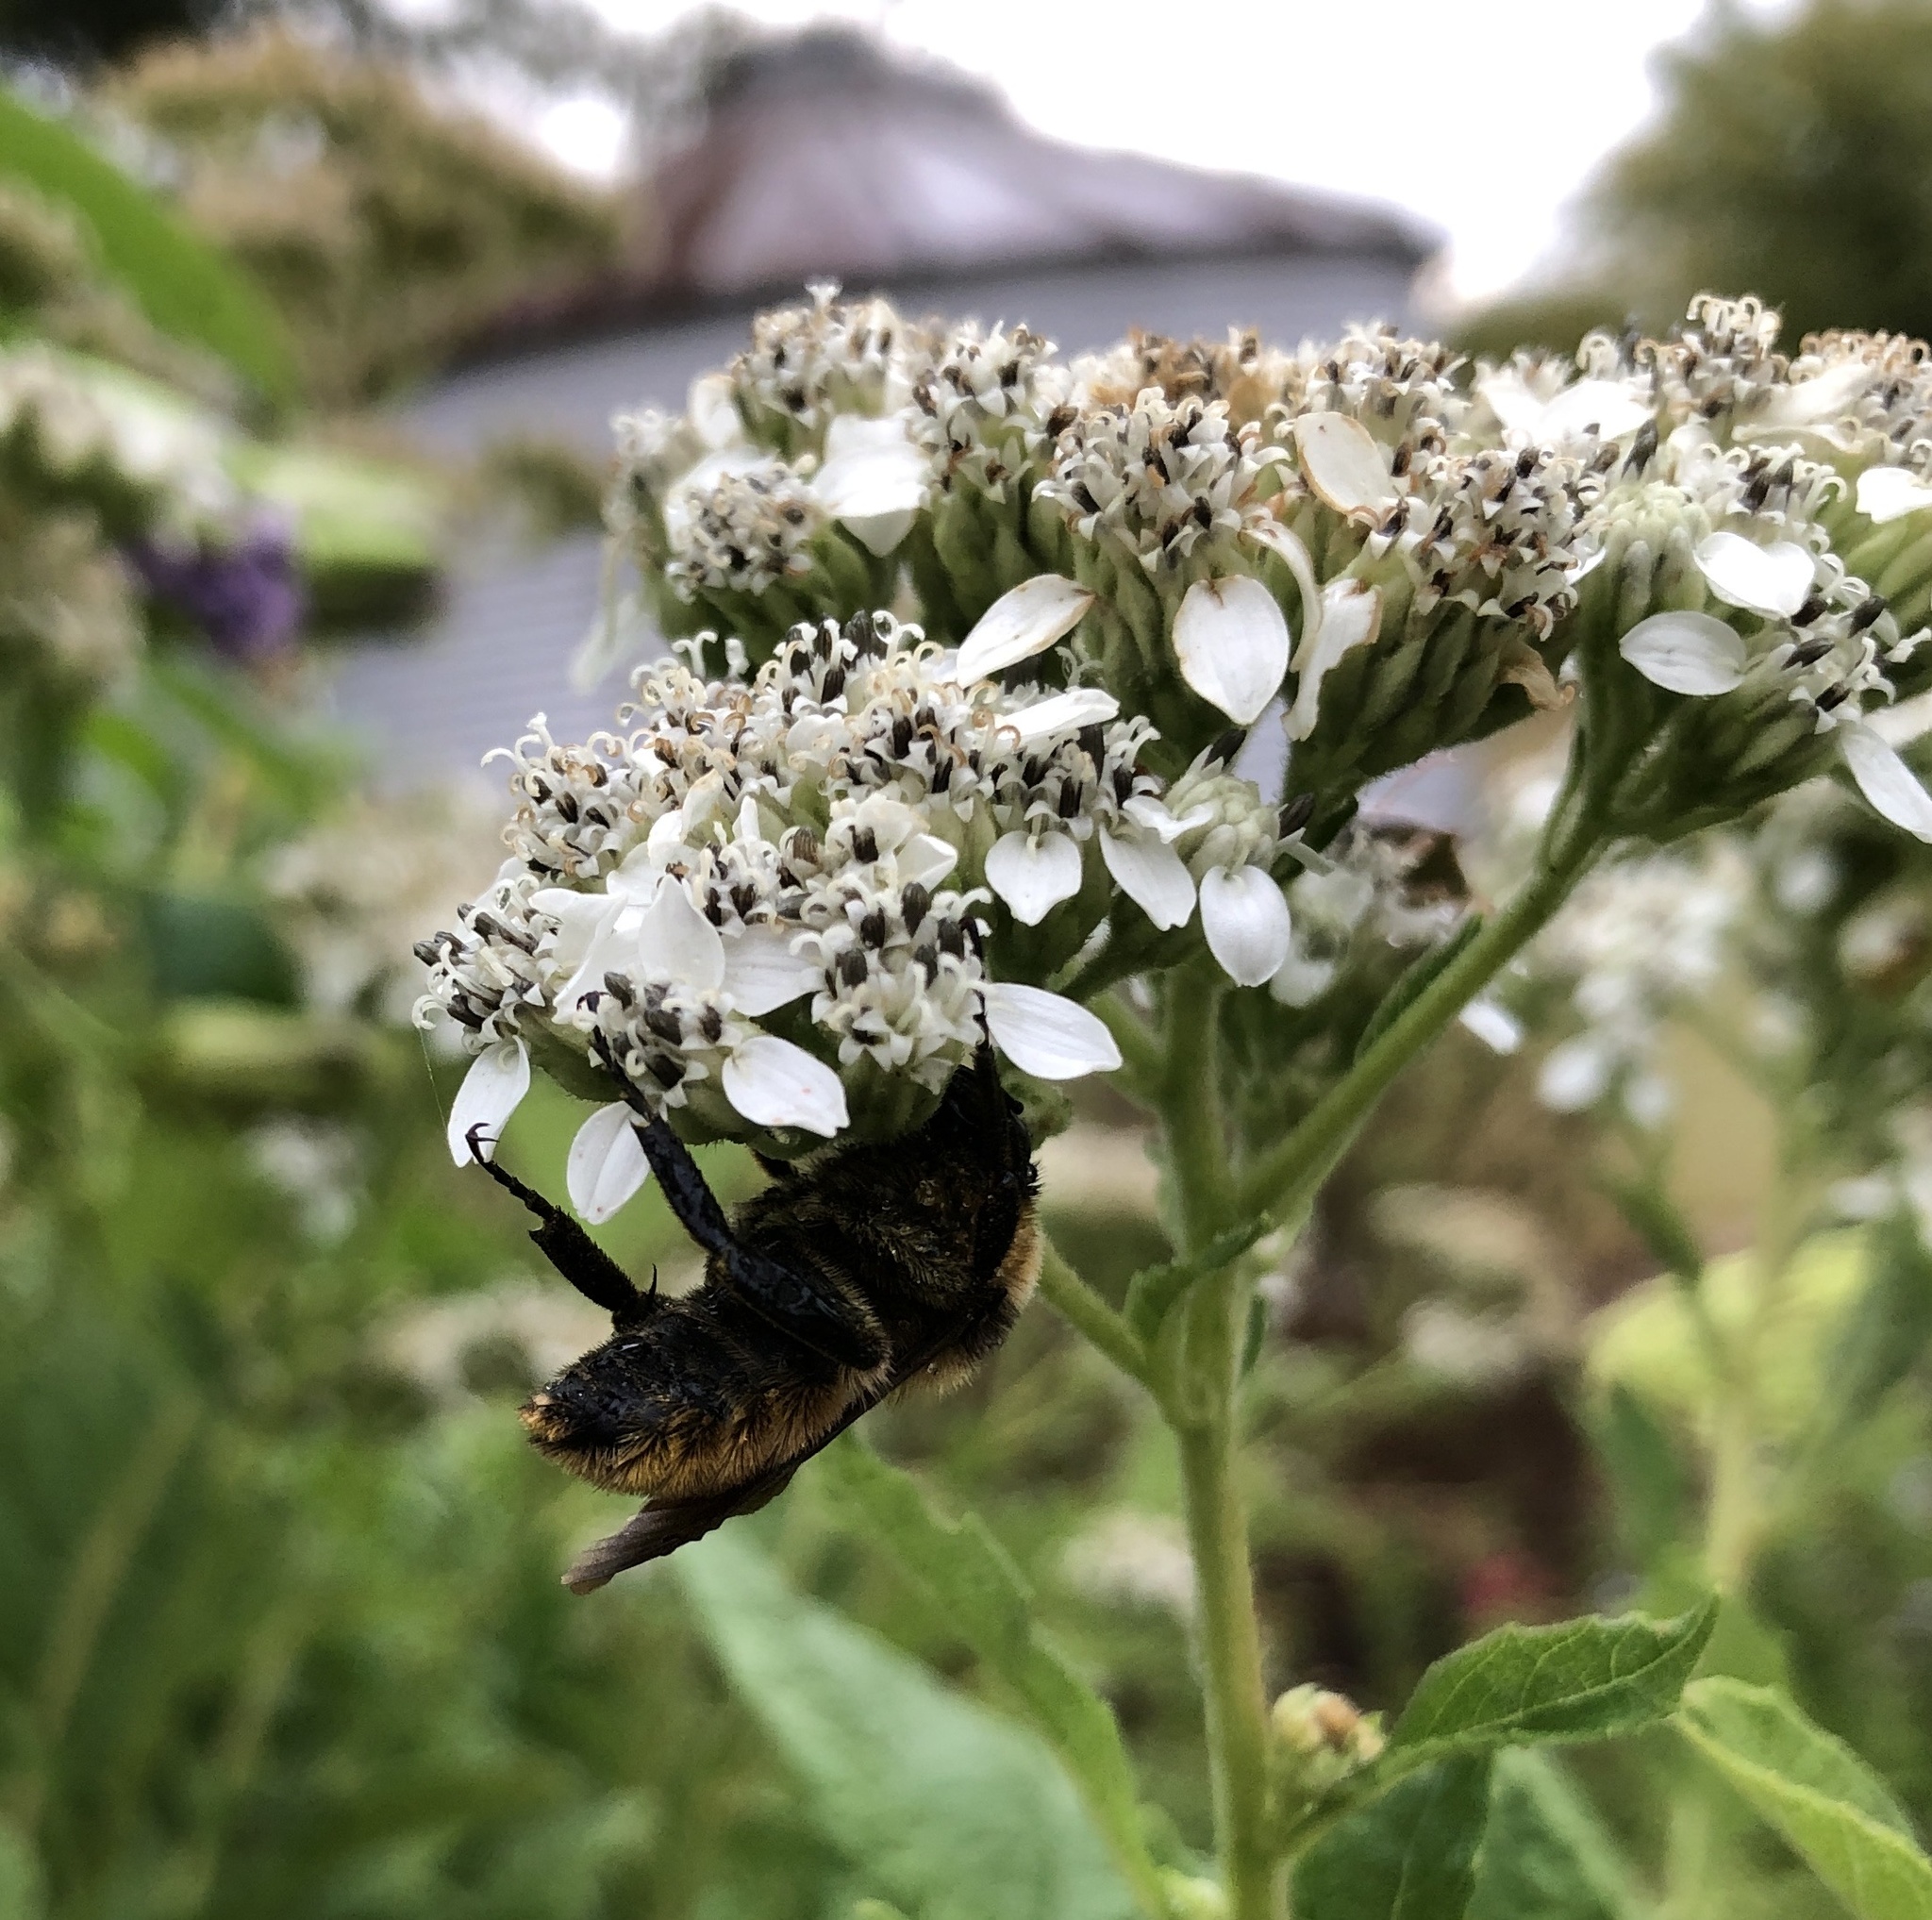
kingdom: Animalia
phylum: Arthropoda
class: Insecta
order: Hymenoptera
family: Apidae
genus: Bombus
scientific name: Bombus pensylvanicus
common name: Bumble bee
